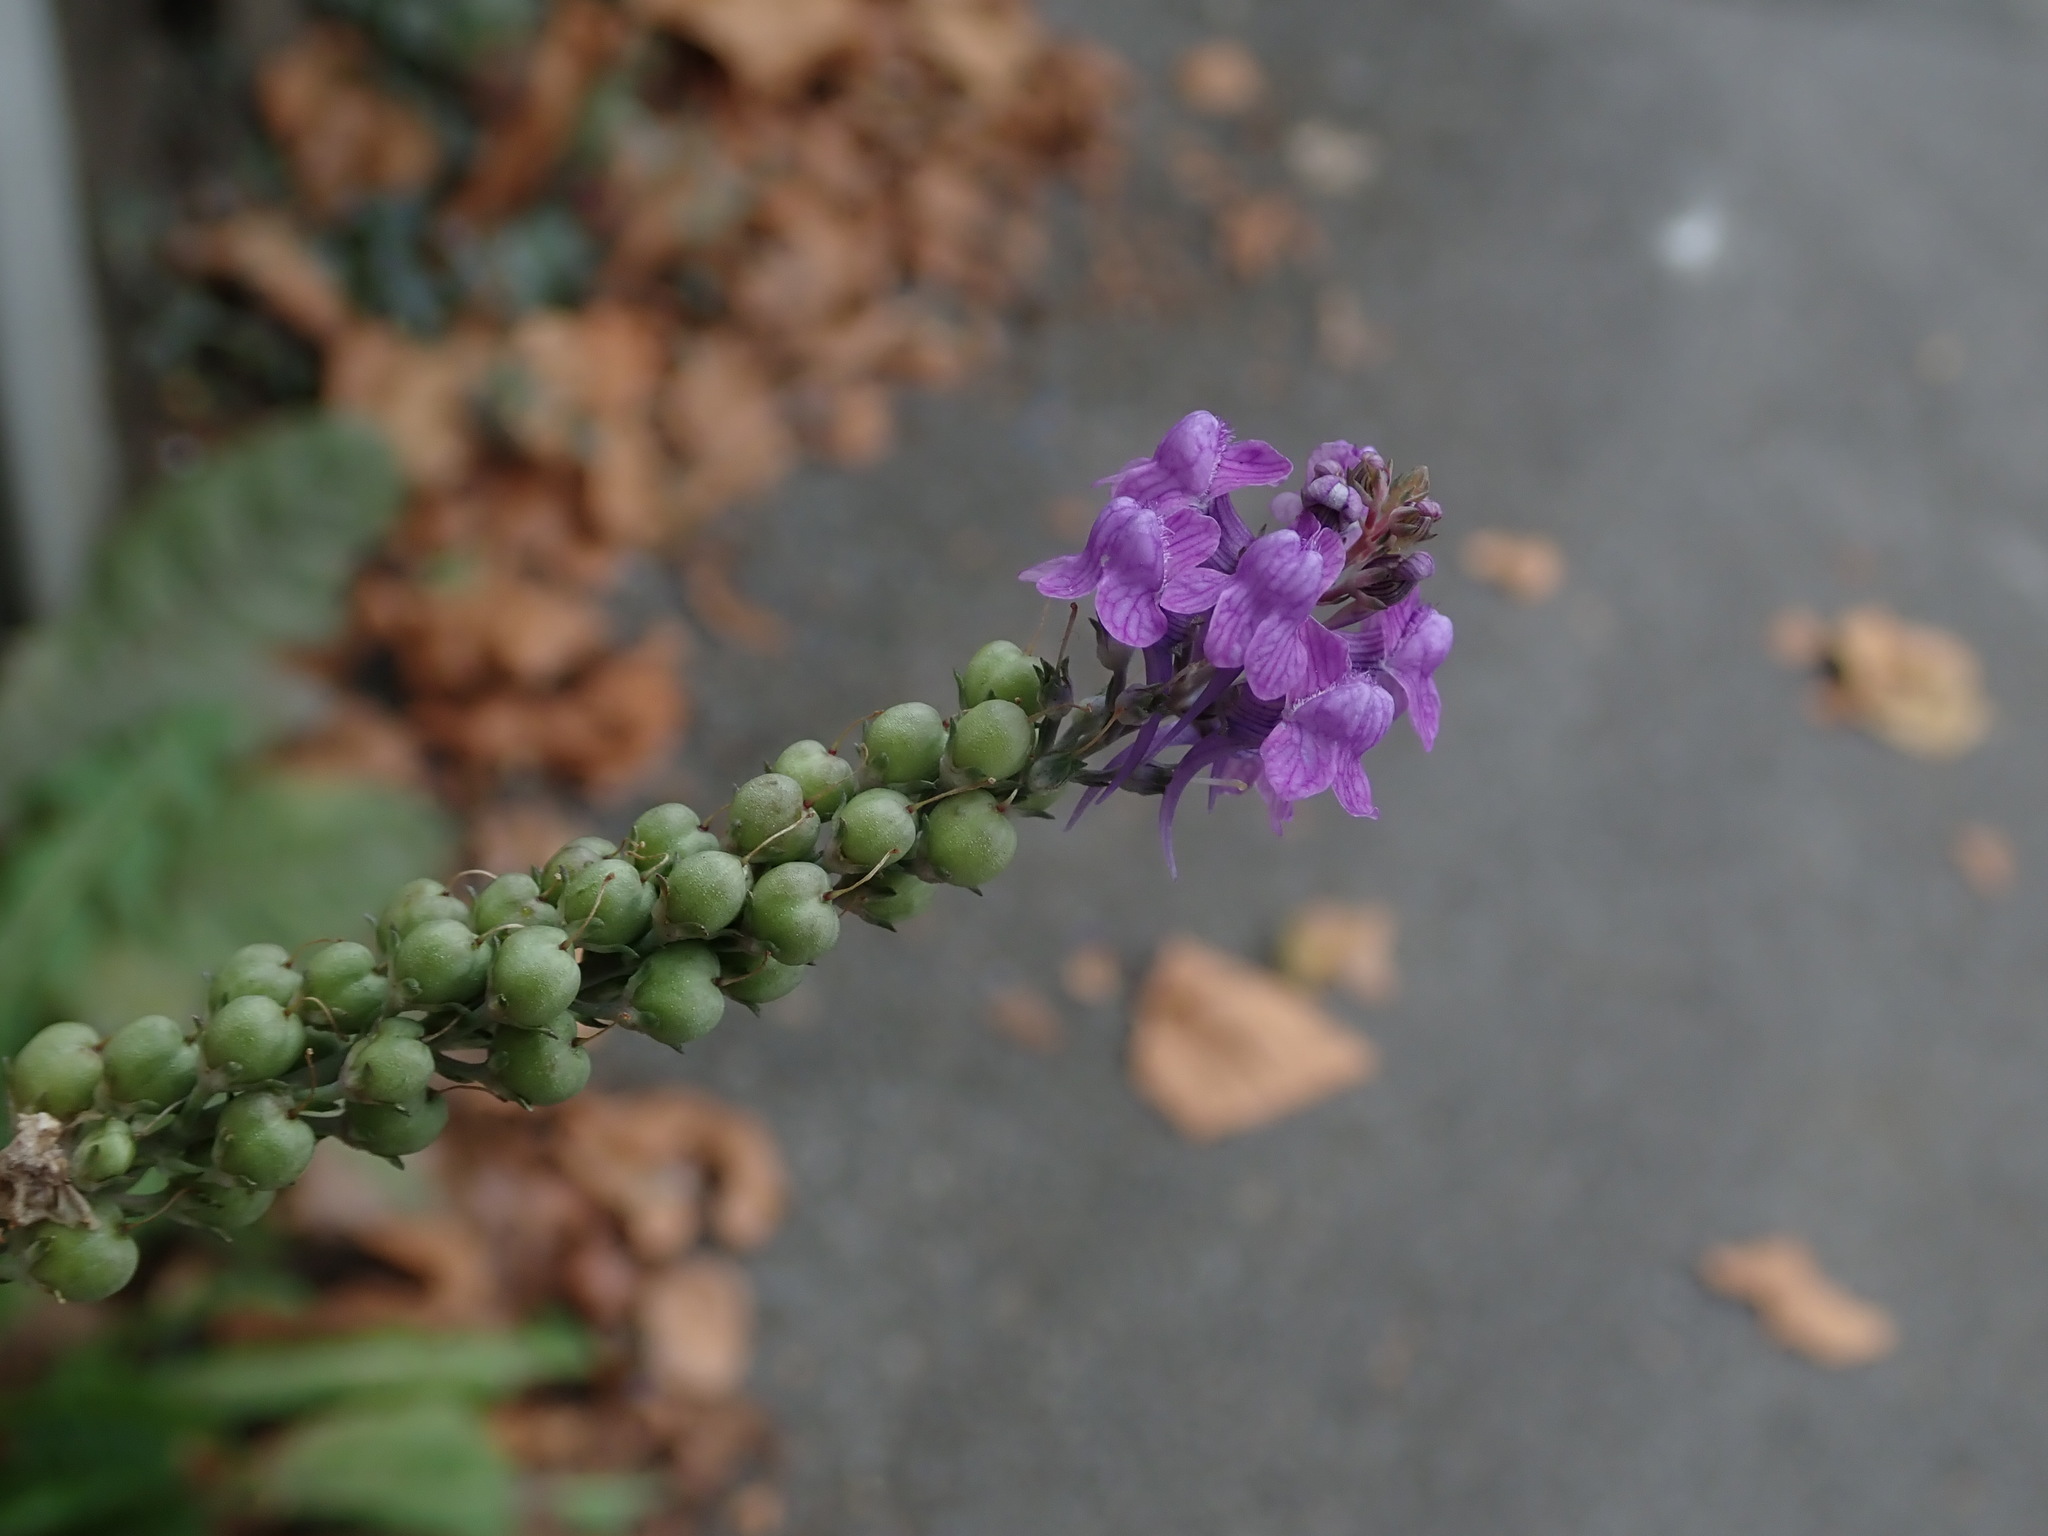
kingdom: Plantae
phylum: Tracheophyta
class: Magnoliopsida
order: Lamiales
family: Plantaginaceae
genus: Linaria
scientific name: Linaria purpurea
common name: Purple toadflax
